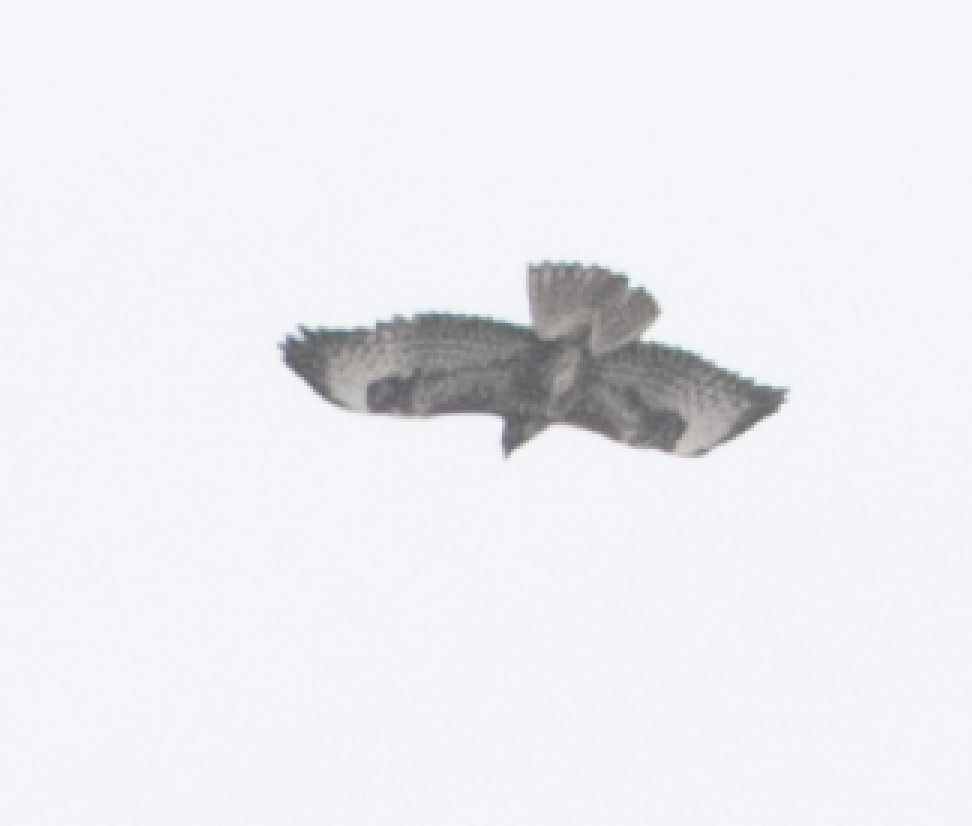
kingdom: Animalia
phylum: Chordata
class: Aves
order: Accipitriformes
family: Accipitridae
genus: Buteo
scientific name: Buteo buteo
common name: Common buzzard
